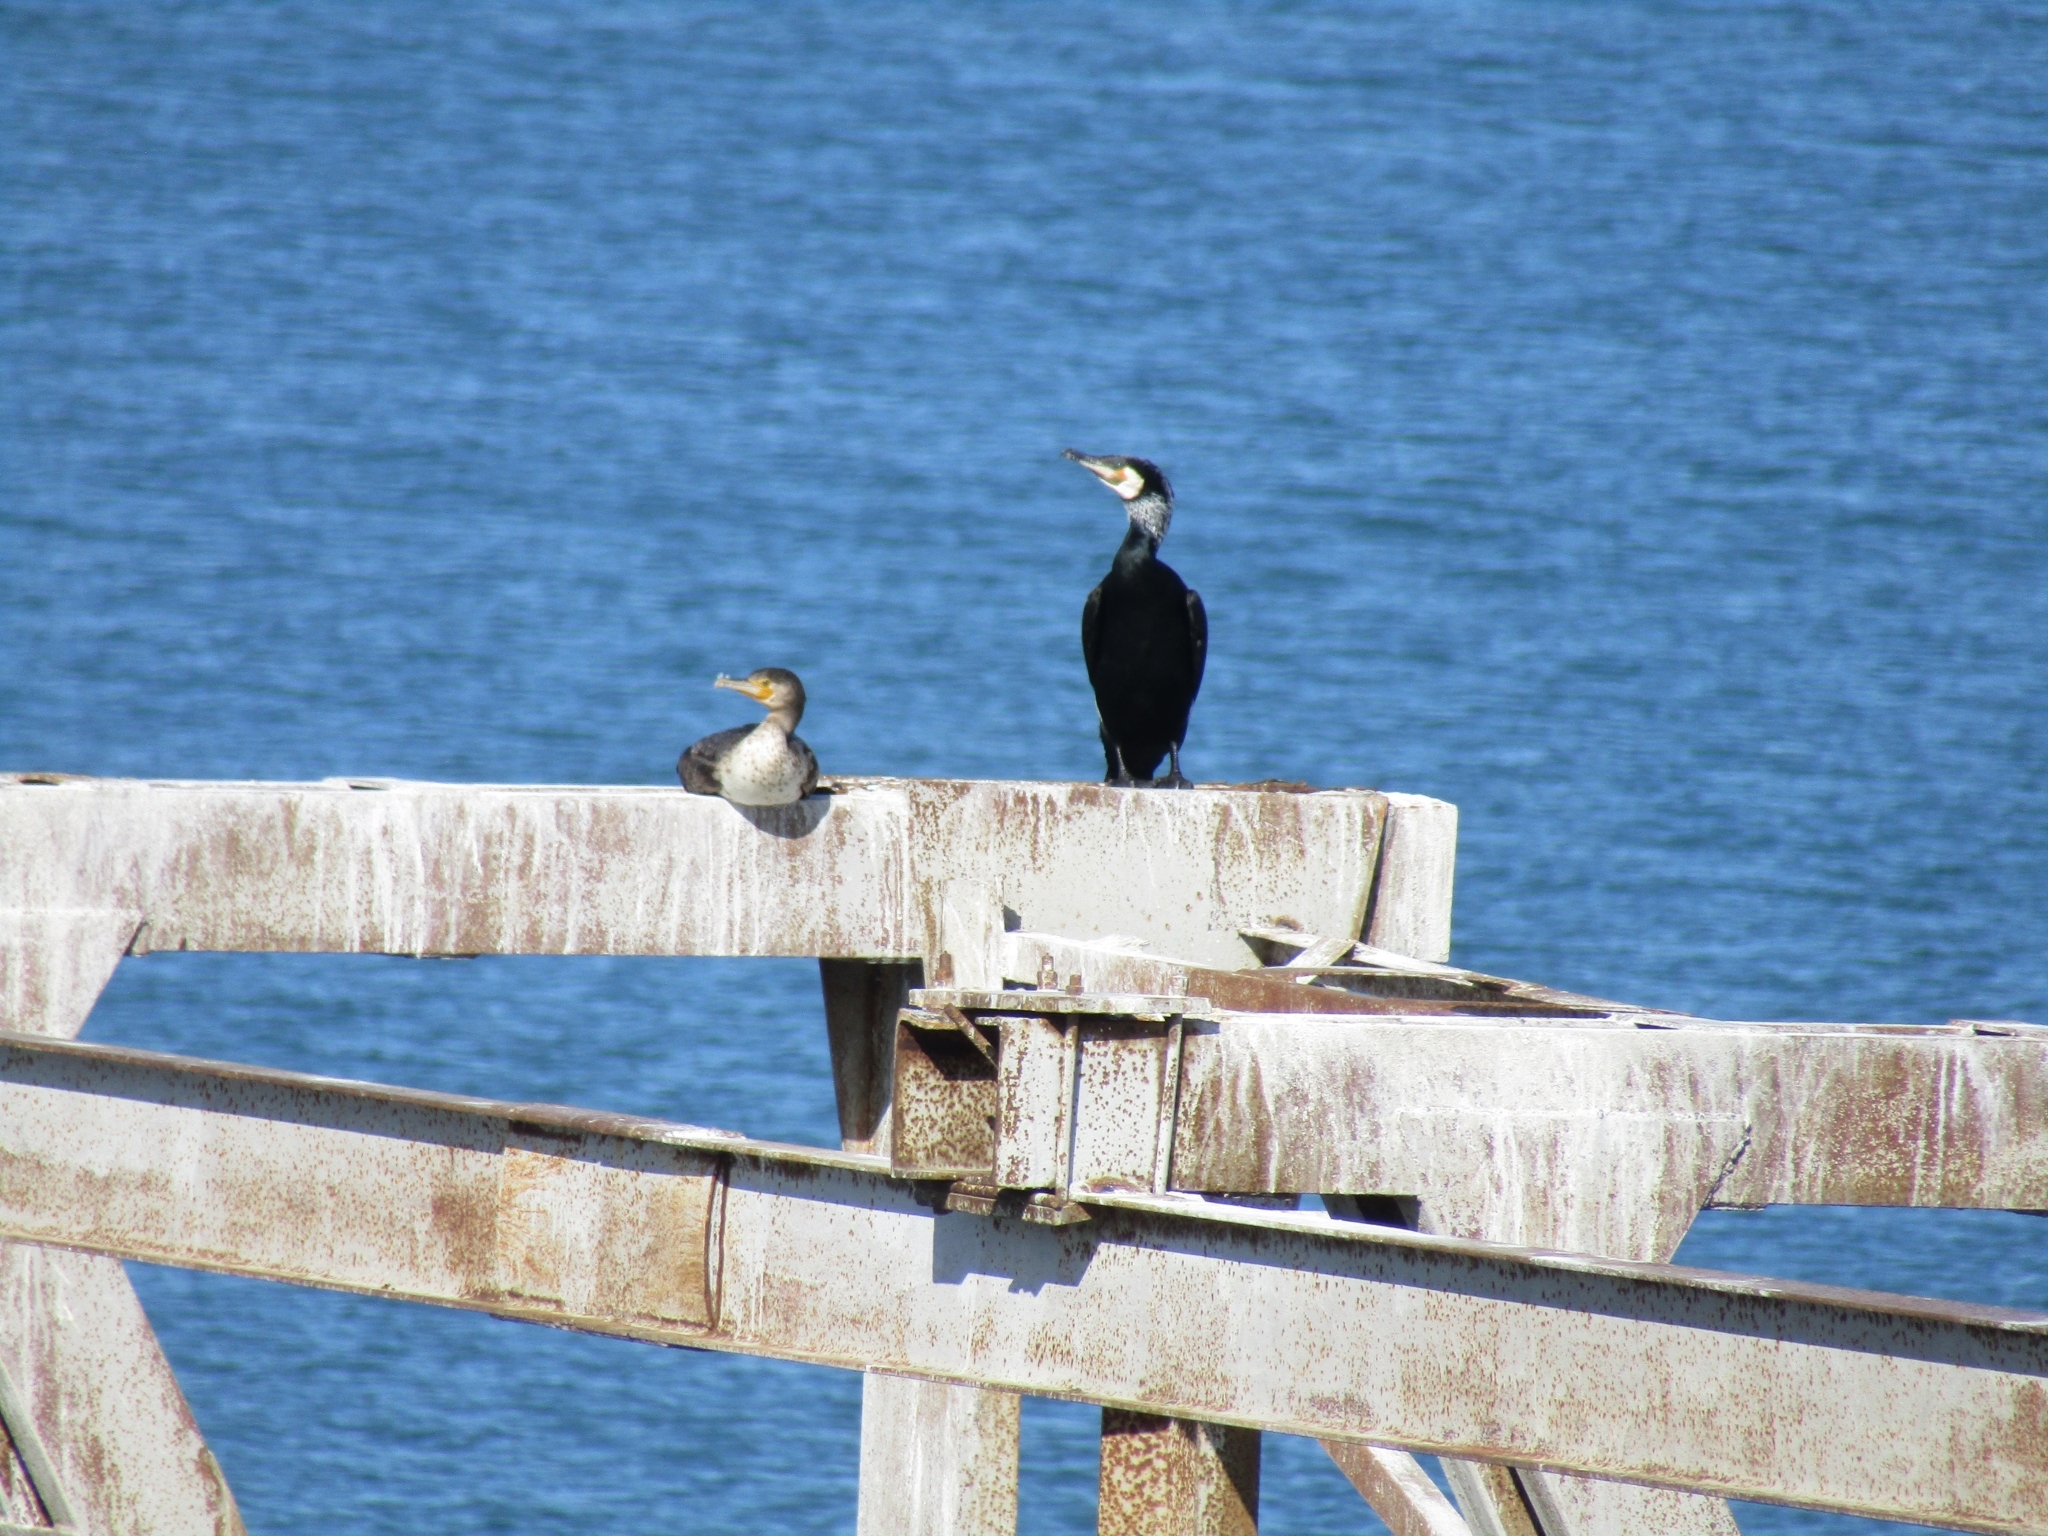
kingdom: Animalia
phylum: Chordata
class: Aves
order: Suliformes
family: Phalacrocoracidae
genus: Phalacrocorax
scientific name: Phalacrocorax carbo
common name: Great cormorant
